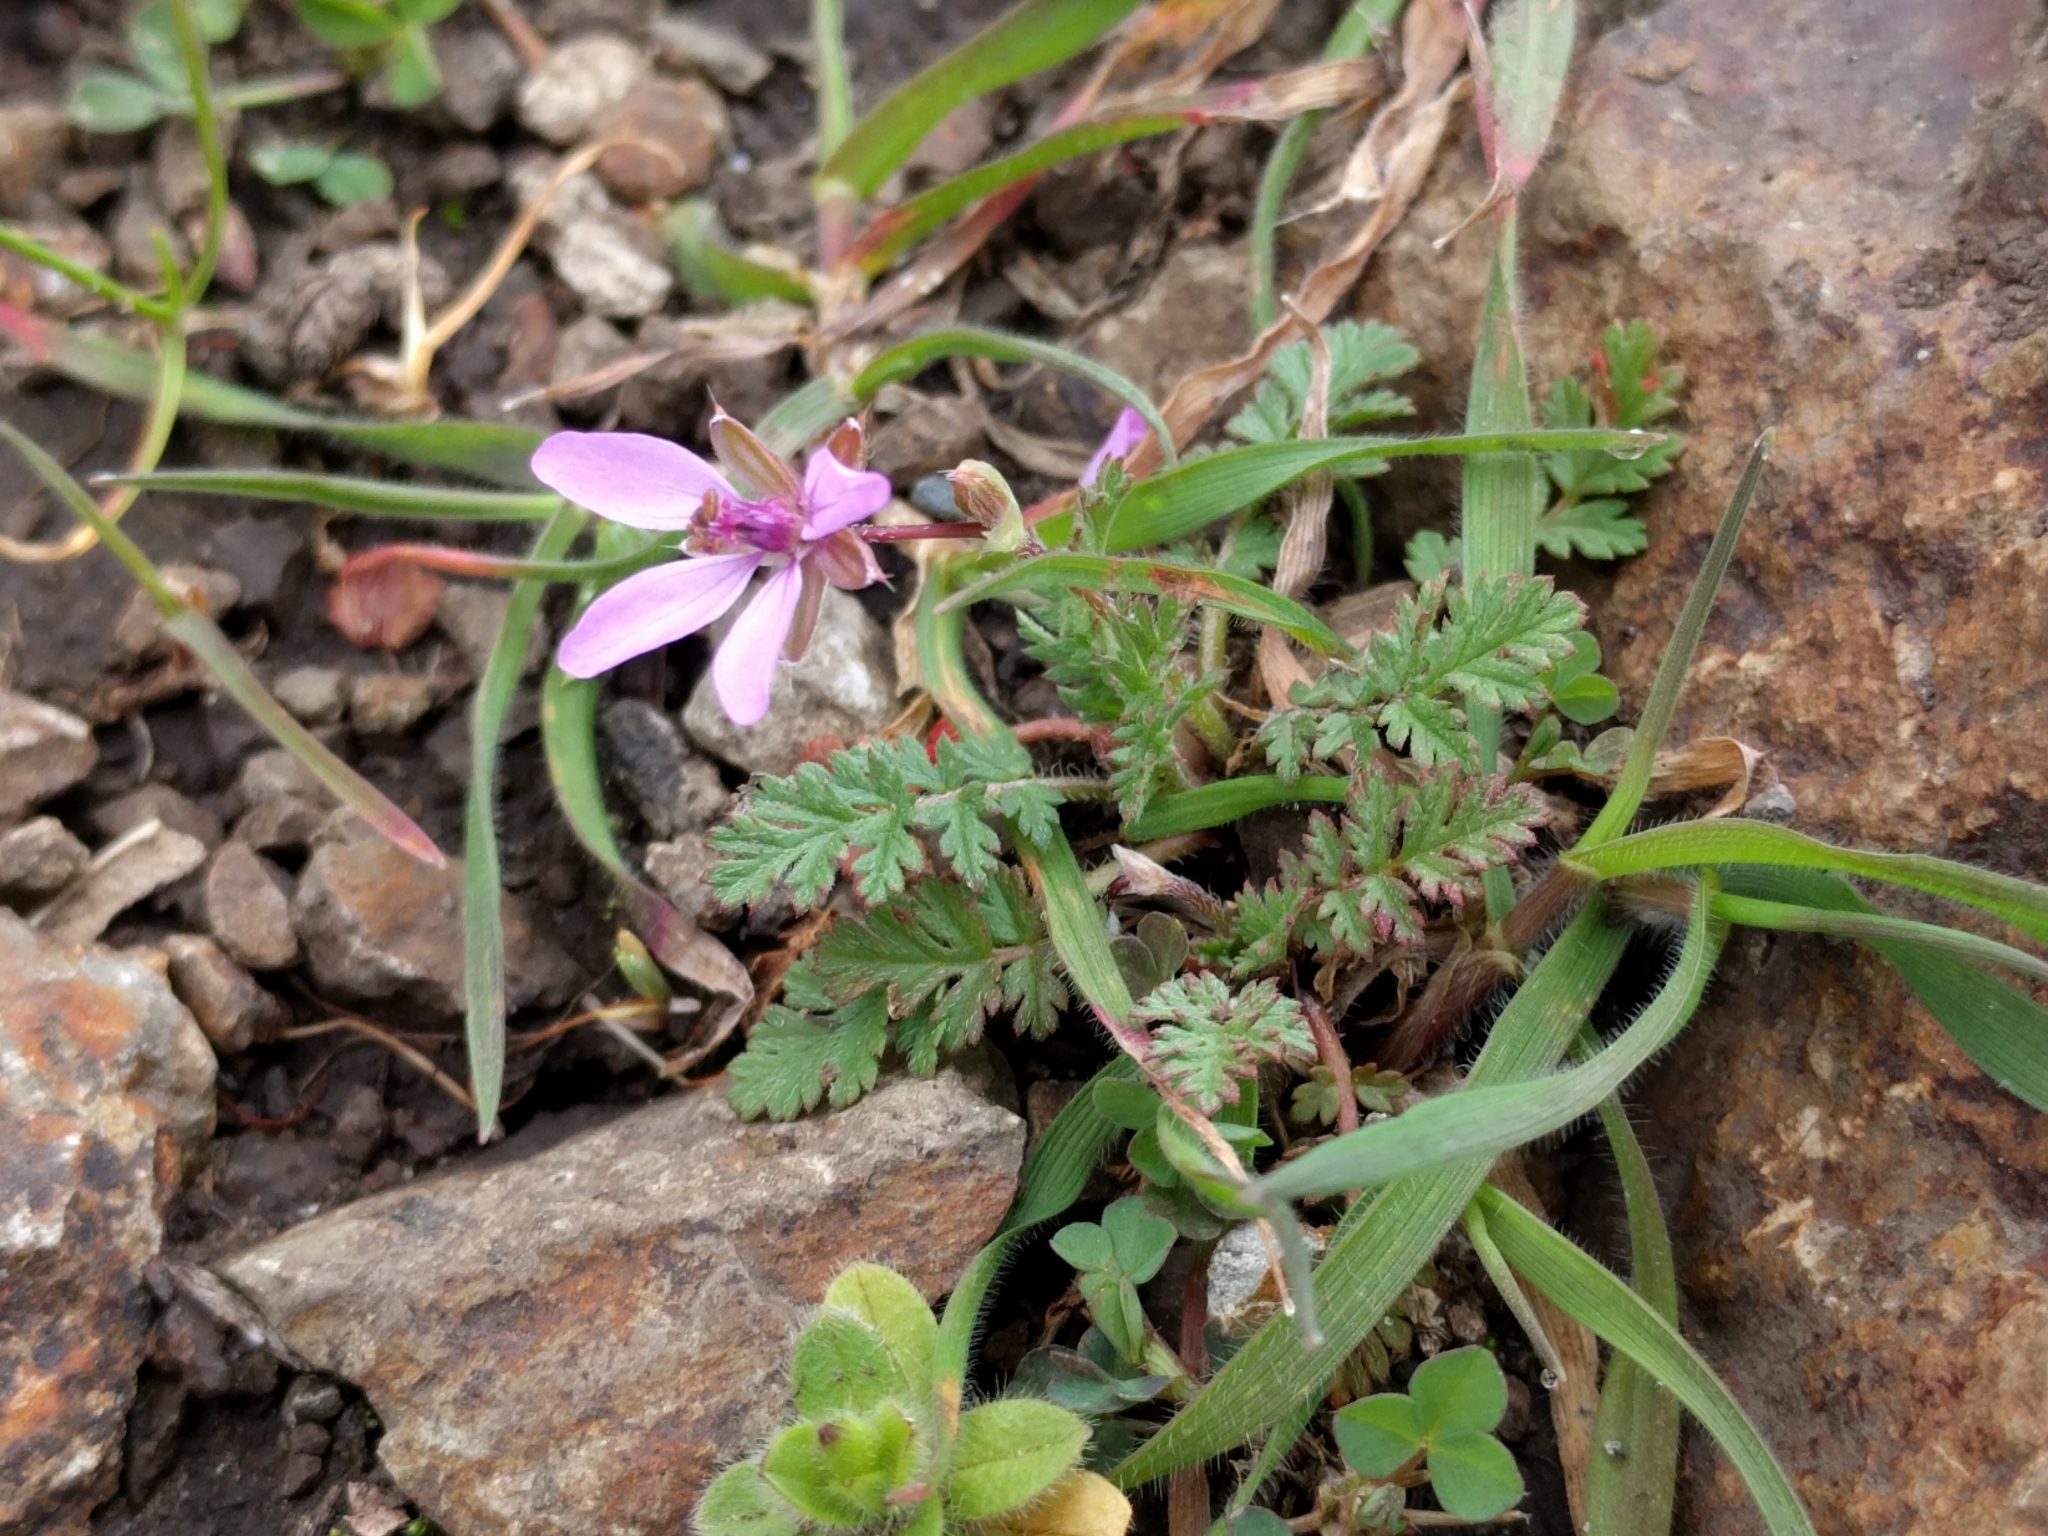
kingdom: Plantae
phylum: Tracheophyta
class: Magnoliopsida
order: Geraniales
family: Geraniaceae
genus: Erodium
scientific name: Erodium cicutarium
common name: Common stork's-bill
